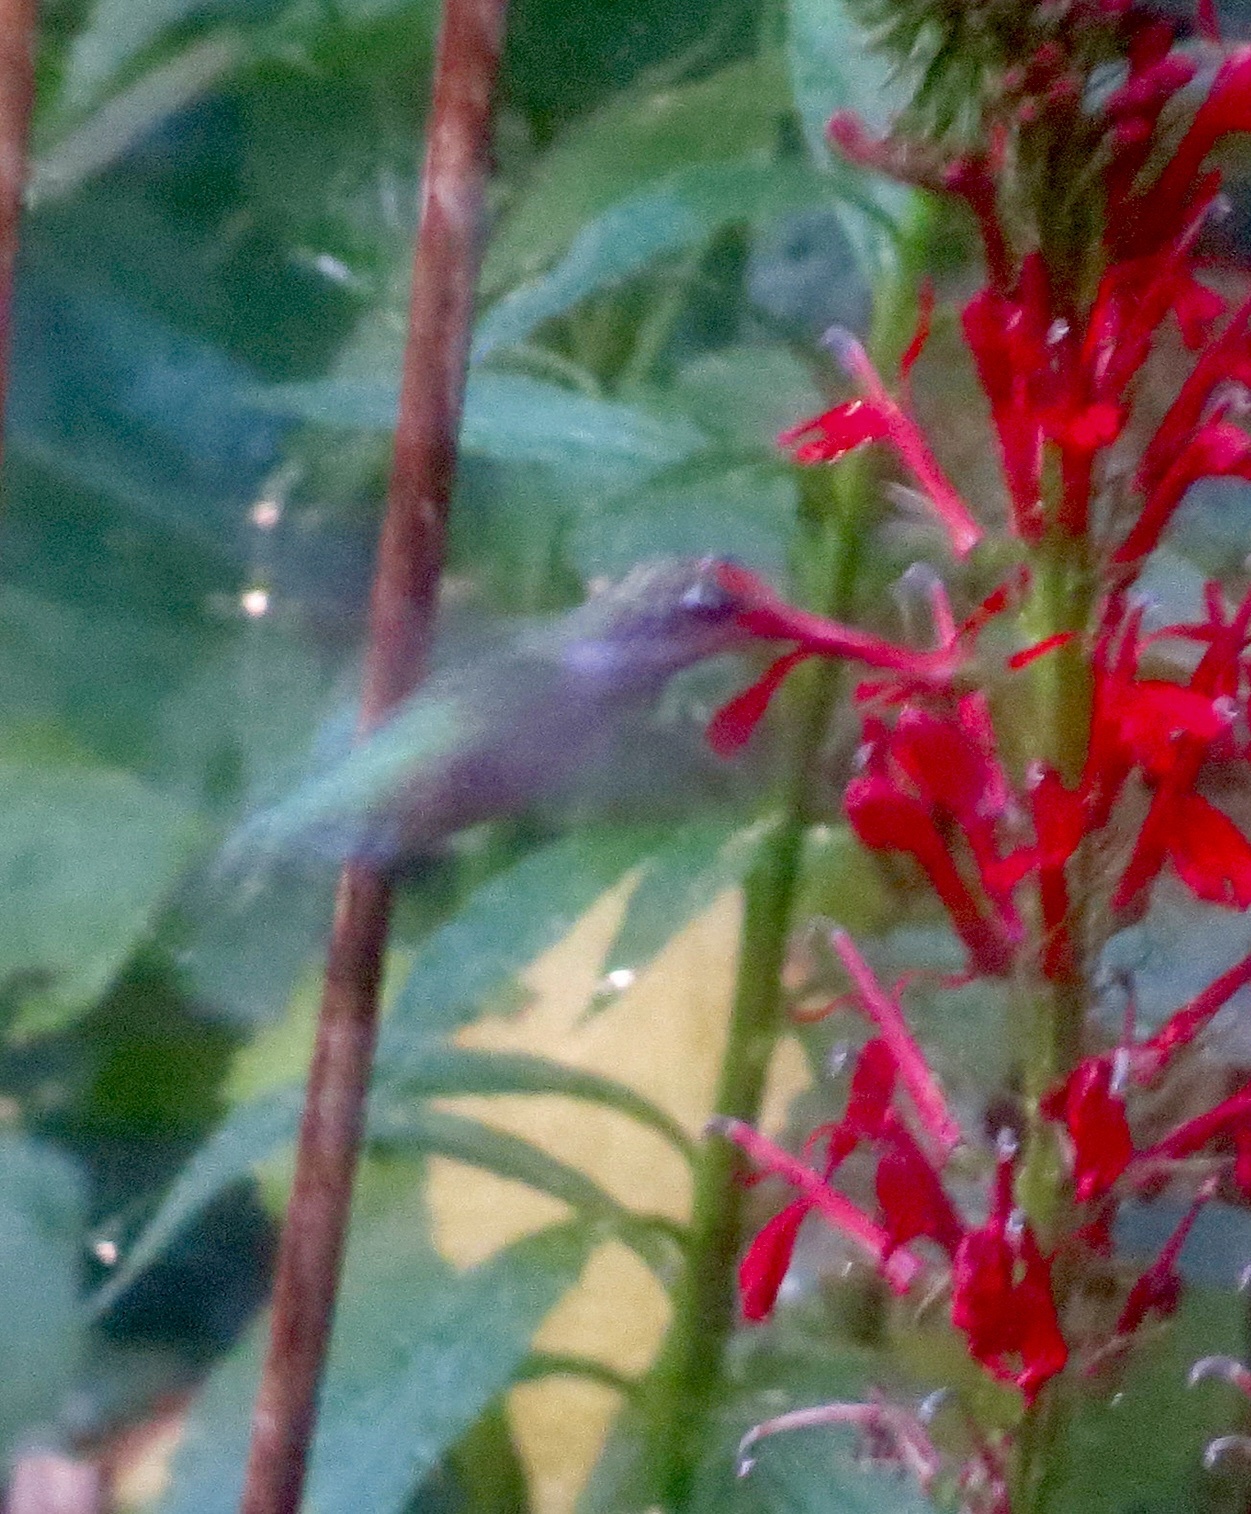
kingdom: Animalia
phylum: Chordata
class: Aves
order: Apodiformes
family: Trochilidae
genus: Archilochus
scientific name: Archilochus colubris
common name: Ruby-throated hummingbird
